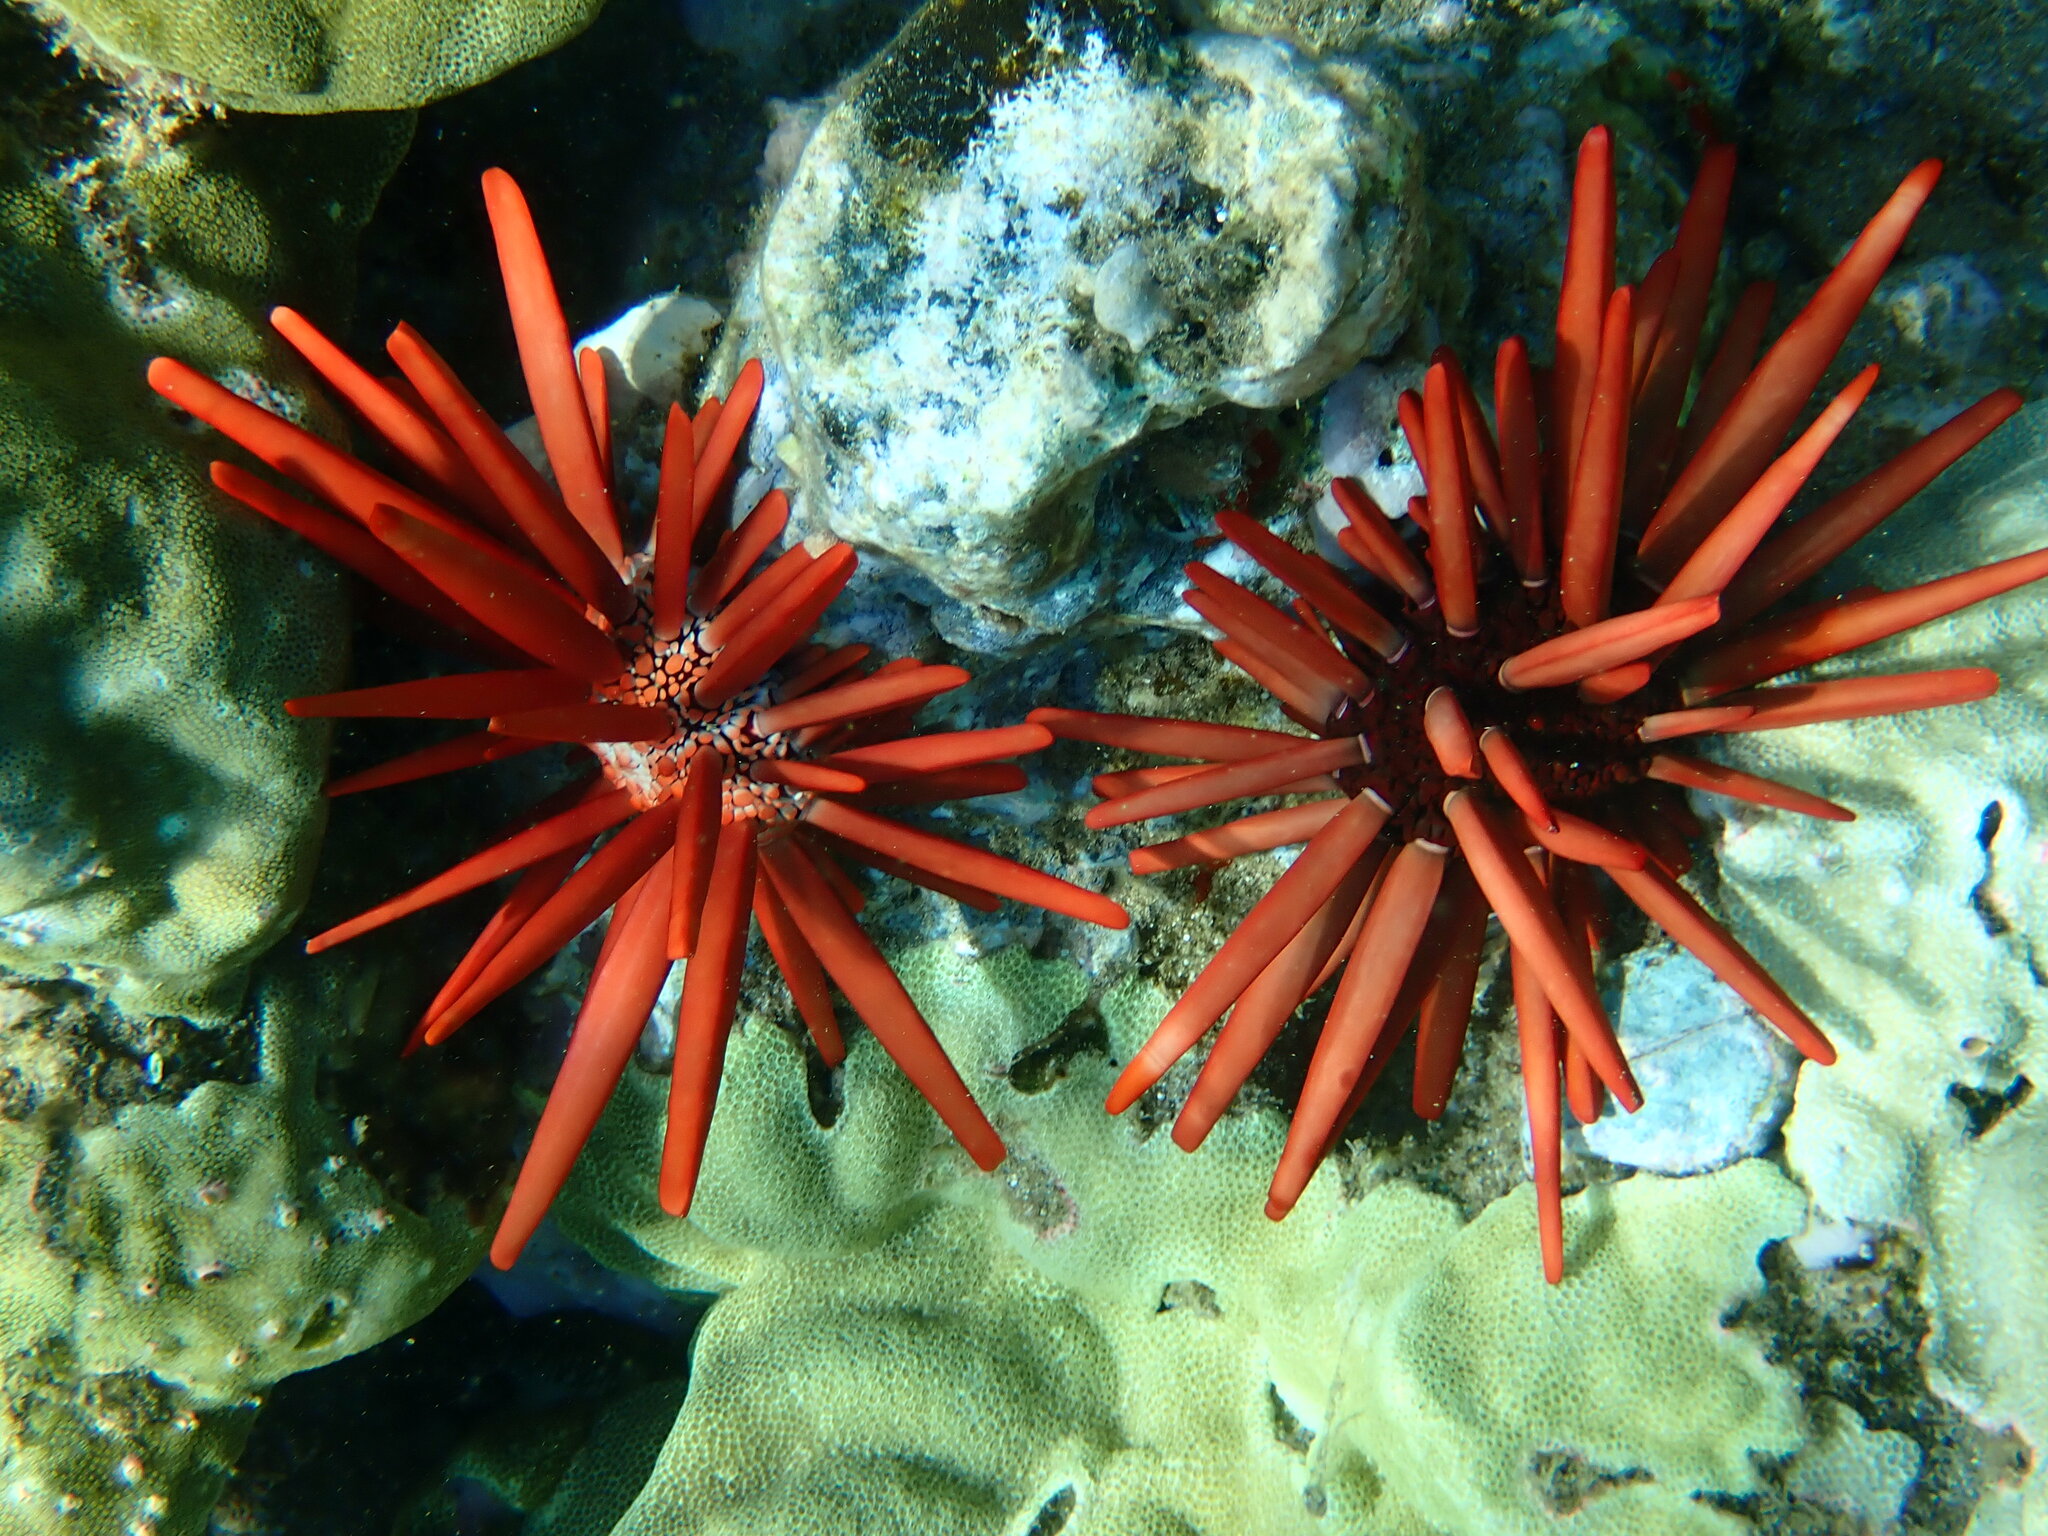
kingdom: Animalia
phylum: Echinodermata
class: Echinoidea
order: Camarodonta
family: Echinometridae
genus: Heterocentrotus
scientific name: Heterocentrotus mamillatus
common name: Slate pencil urchin
